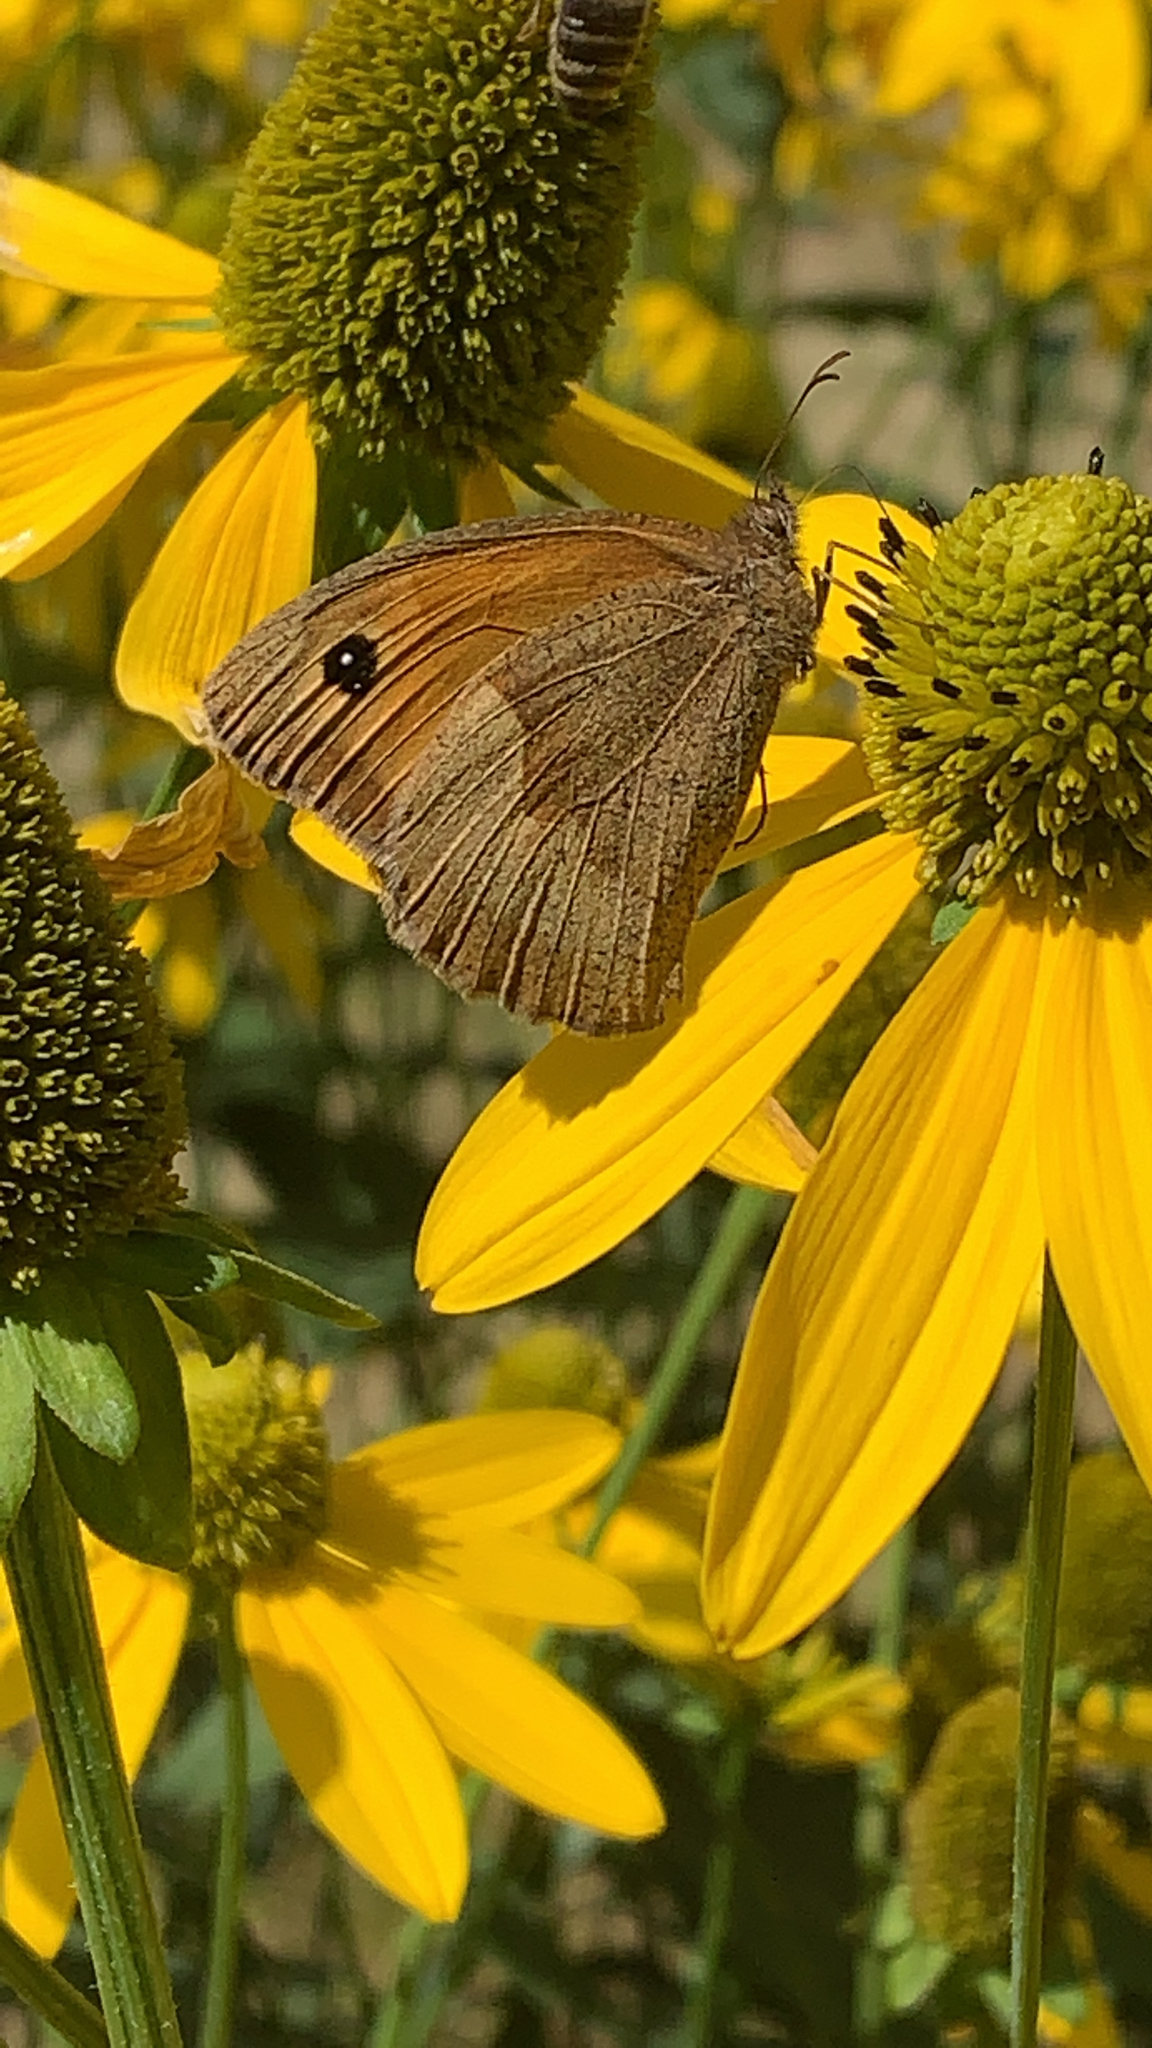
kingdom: Animalia
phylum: Arthropoda
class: Insecta
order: Lepidoptera
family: Nymphalidae
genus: Maniola
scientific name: Maniola jurtina
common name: Meadow brown
